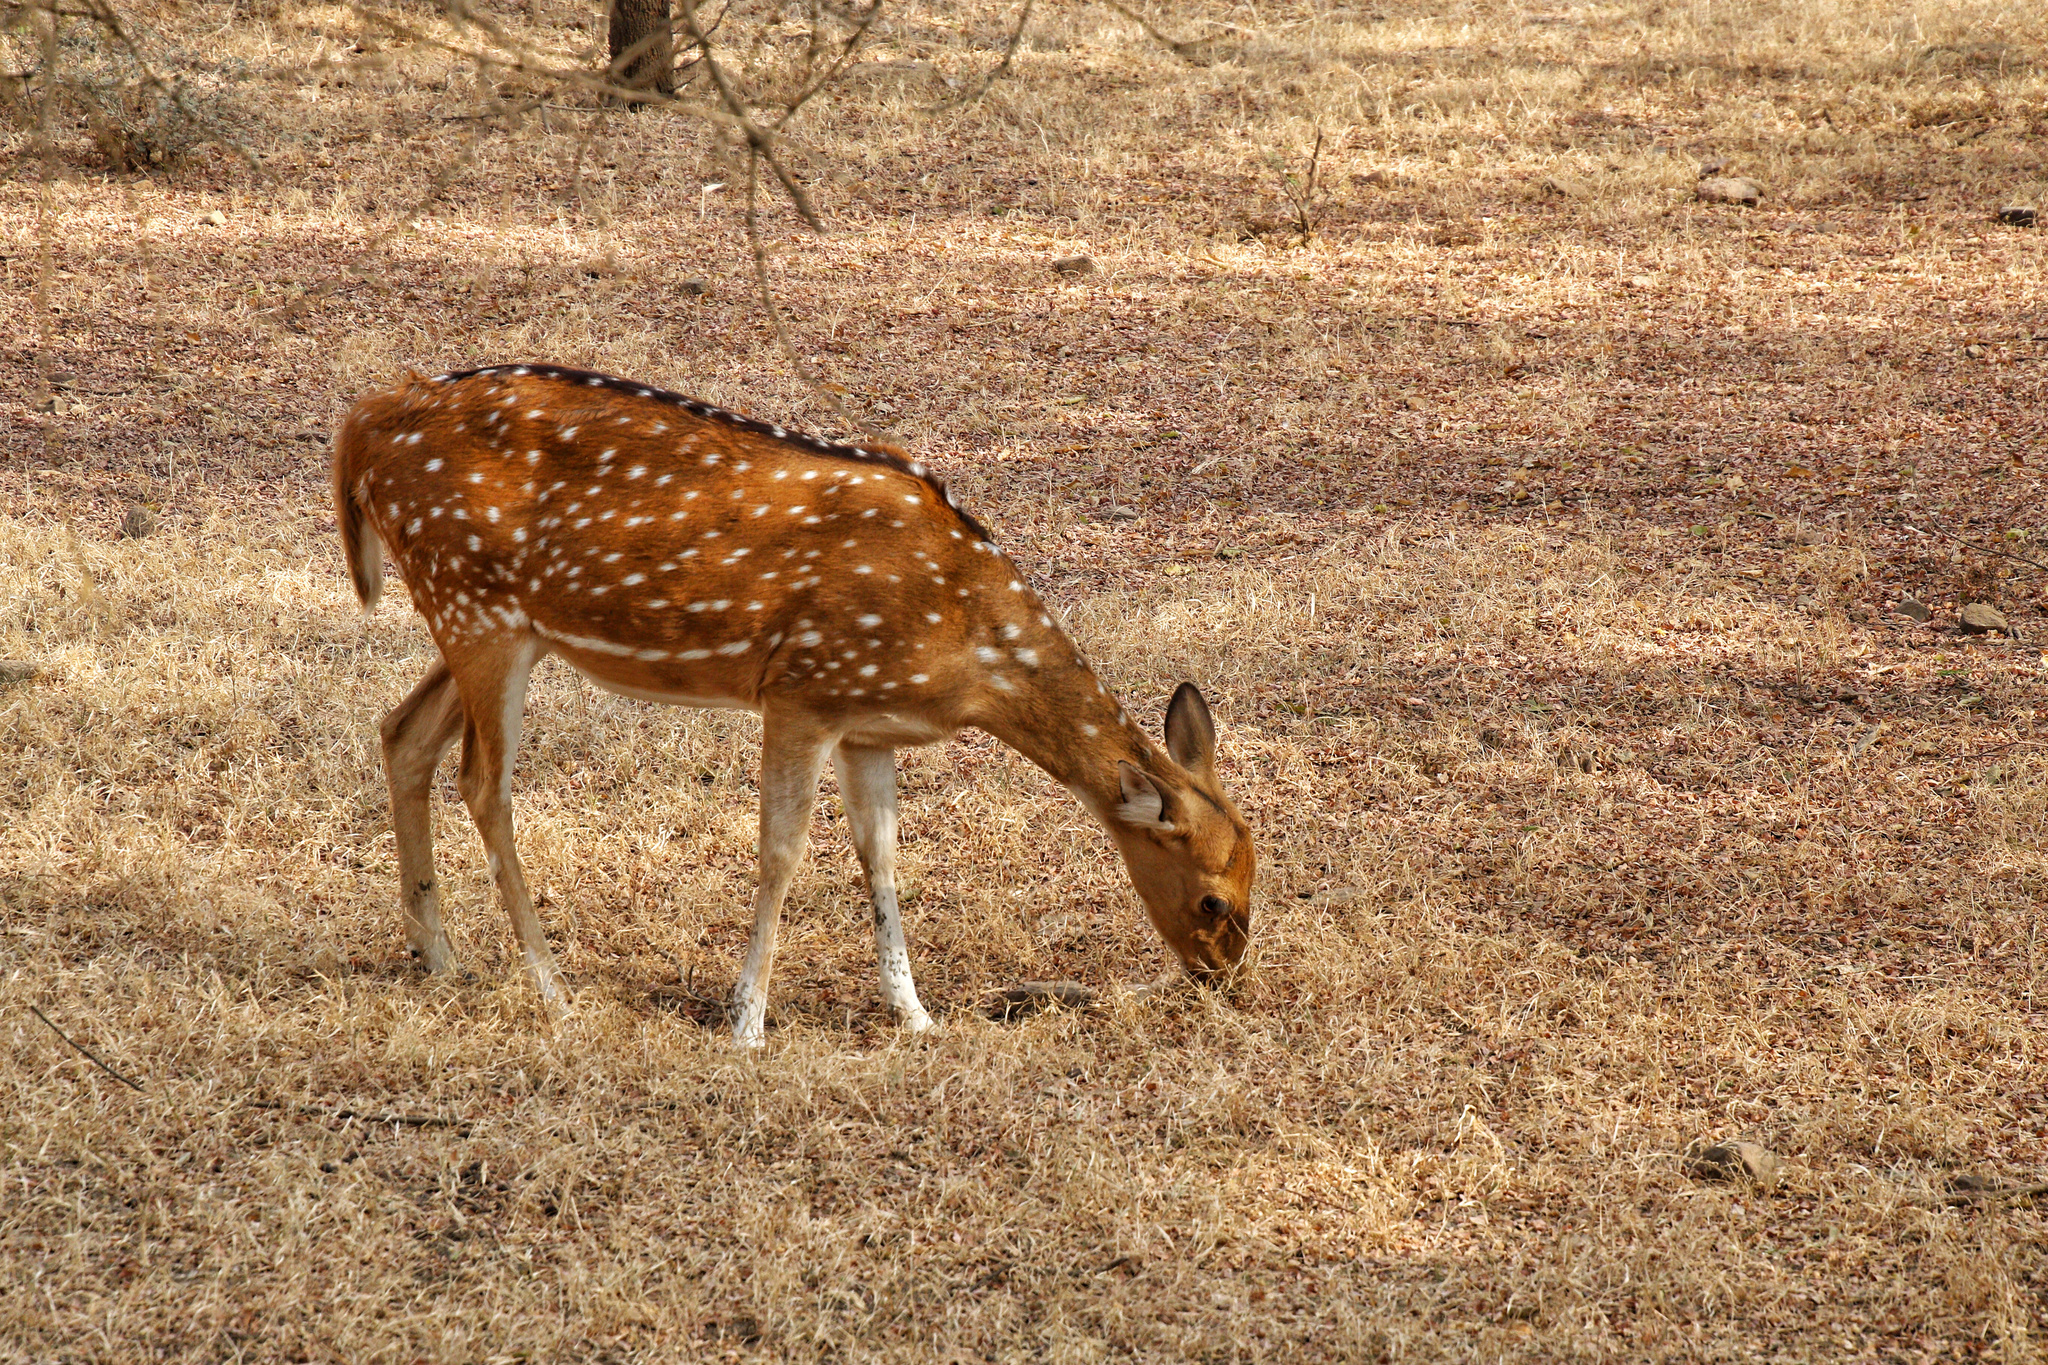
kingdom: Animalia
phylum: Chordata
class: Mammalia
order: Artiodactyla
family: Cervidae
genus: Axis
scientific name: Axis axis
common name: Chital
